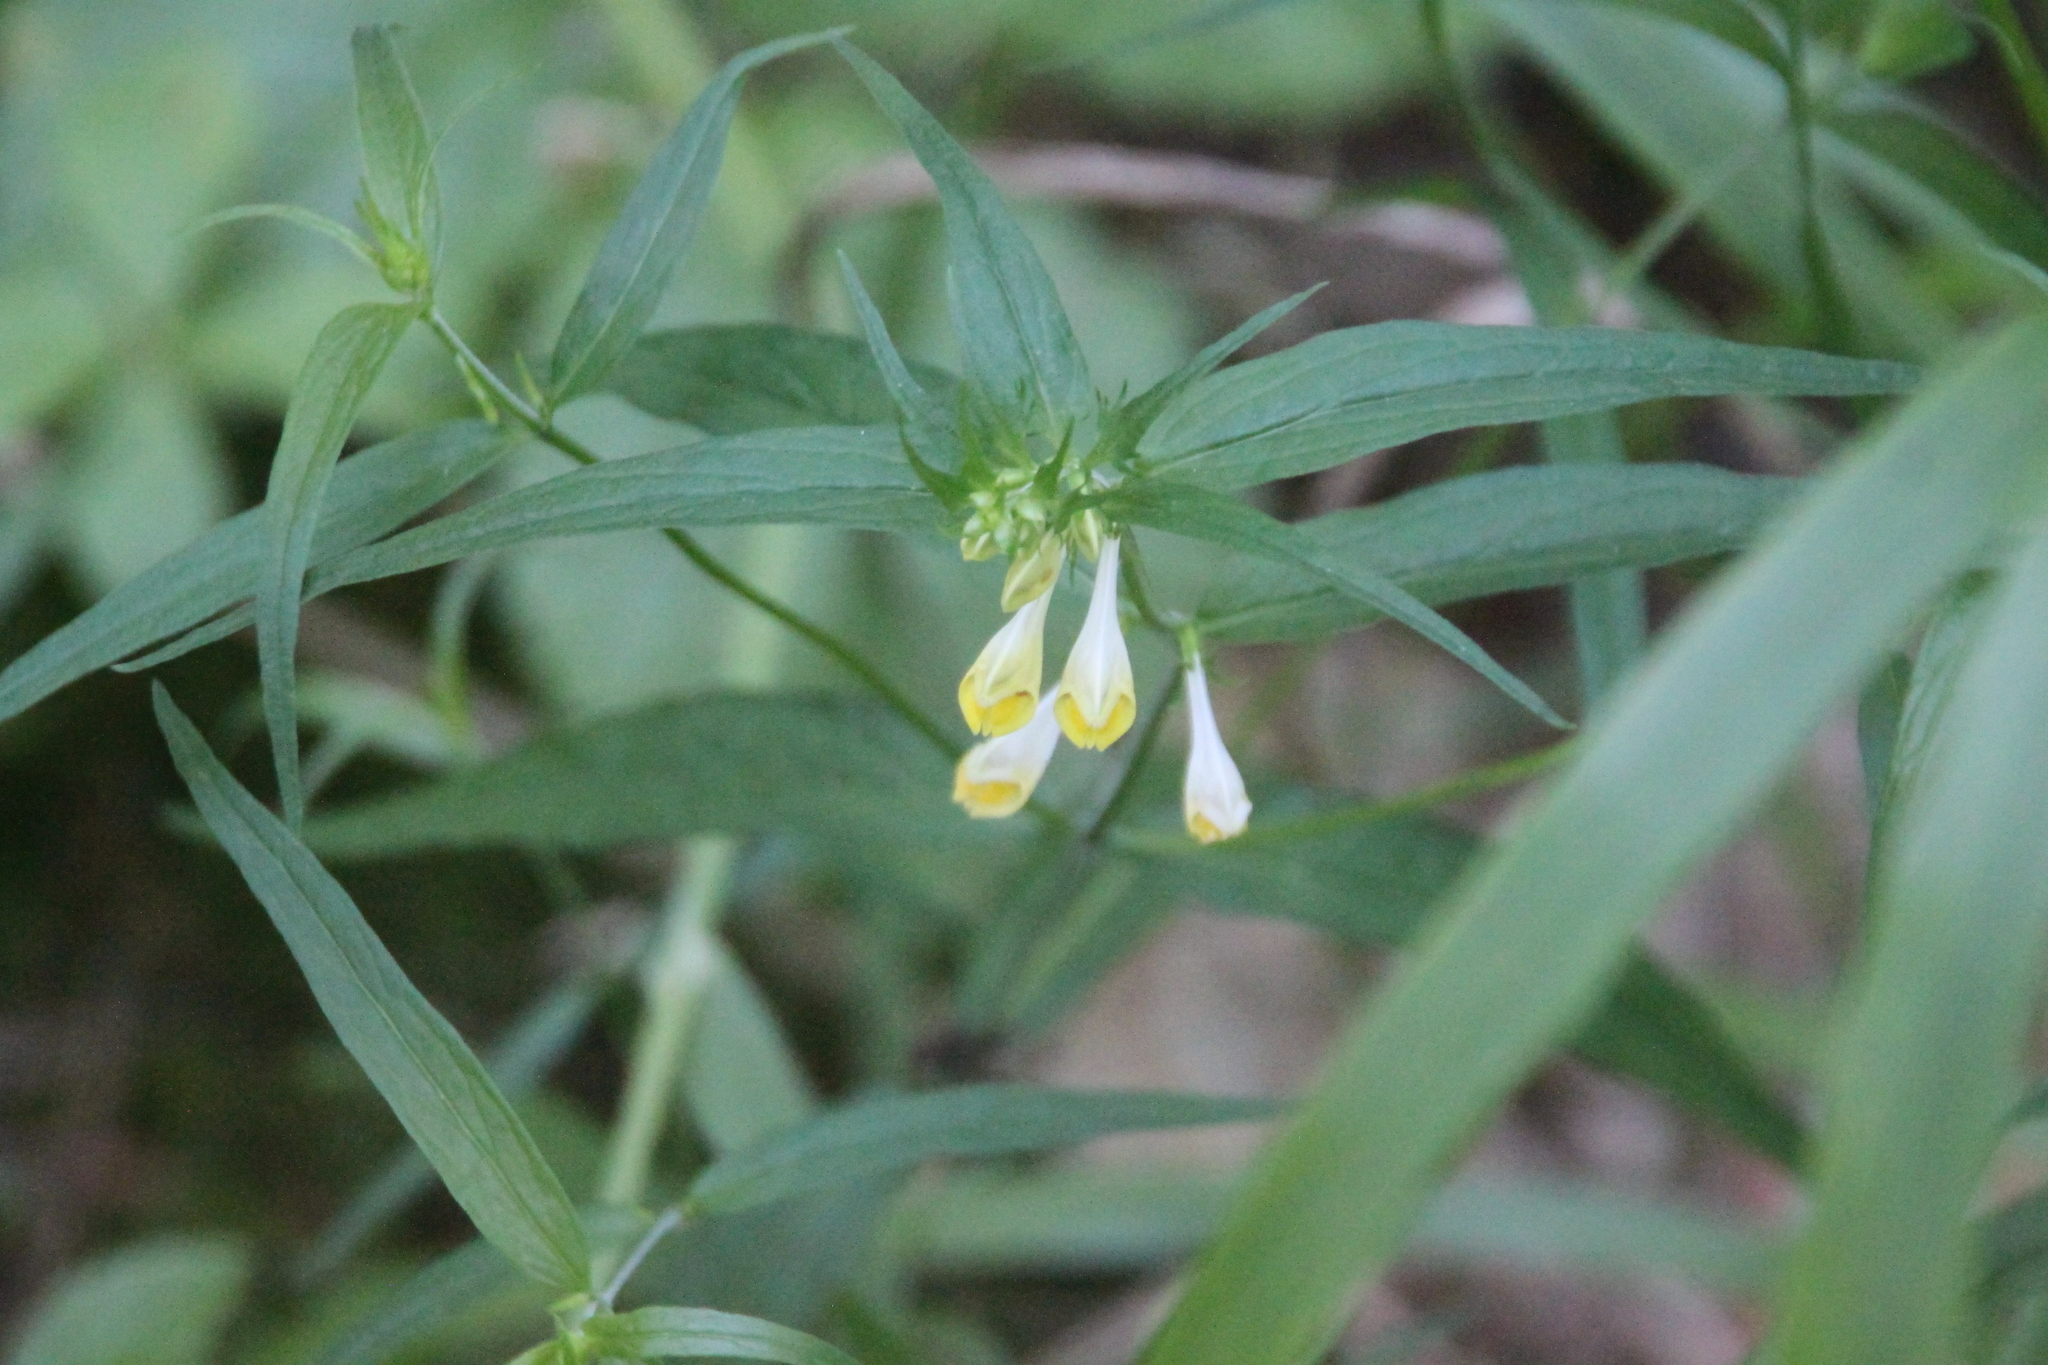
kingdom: Plantae
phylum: Tracheophyta
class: Magnoliopsida
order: Lamiales
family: Orobanchaceae
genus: Melampyrum
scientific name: Melampyrum pratense
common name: Common cow-wheat
